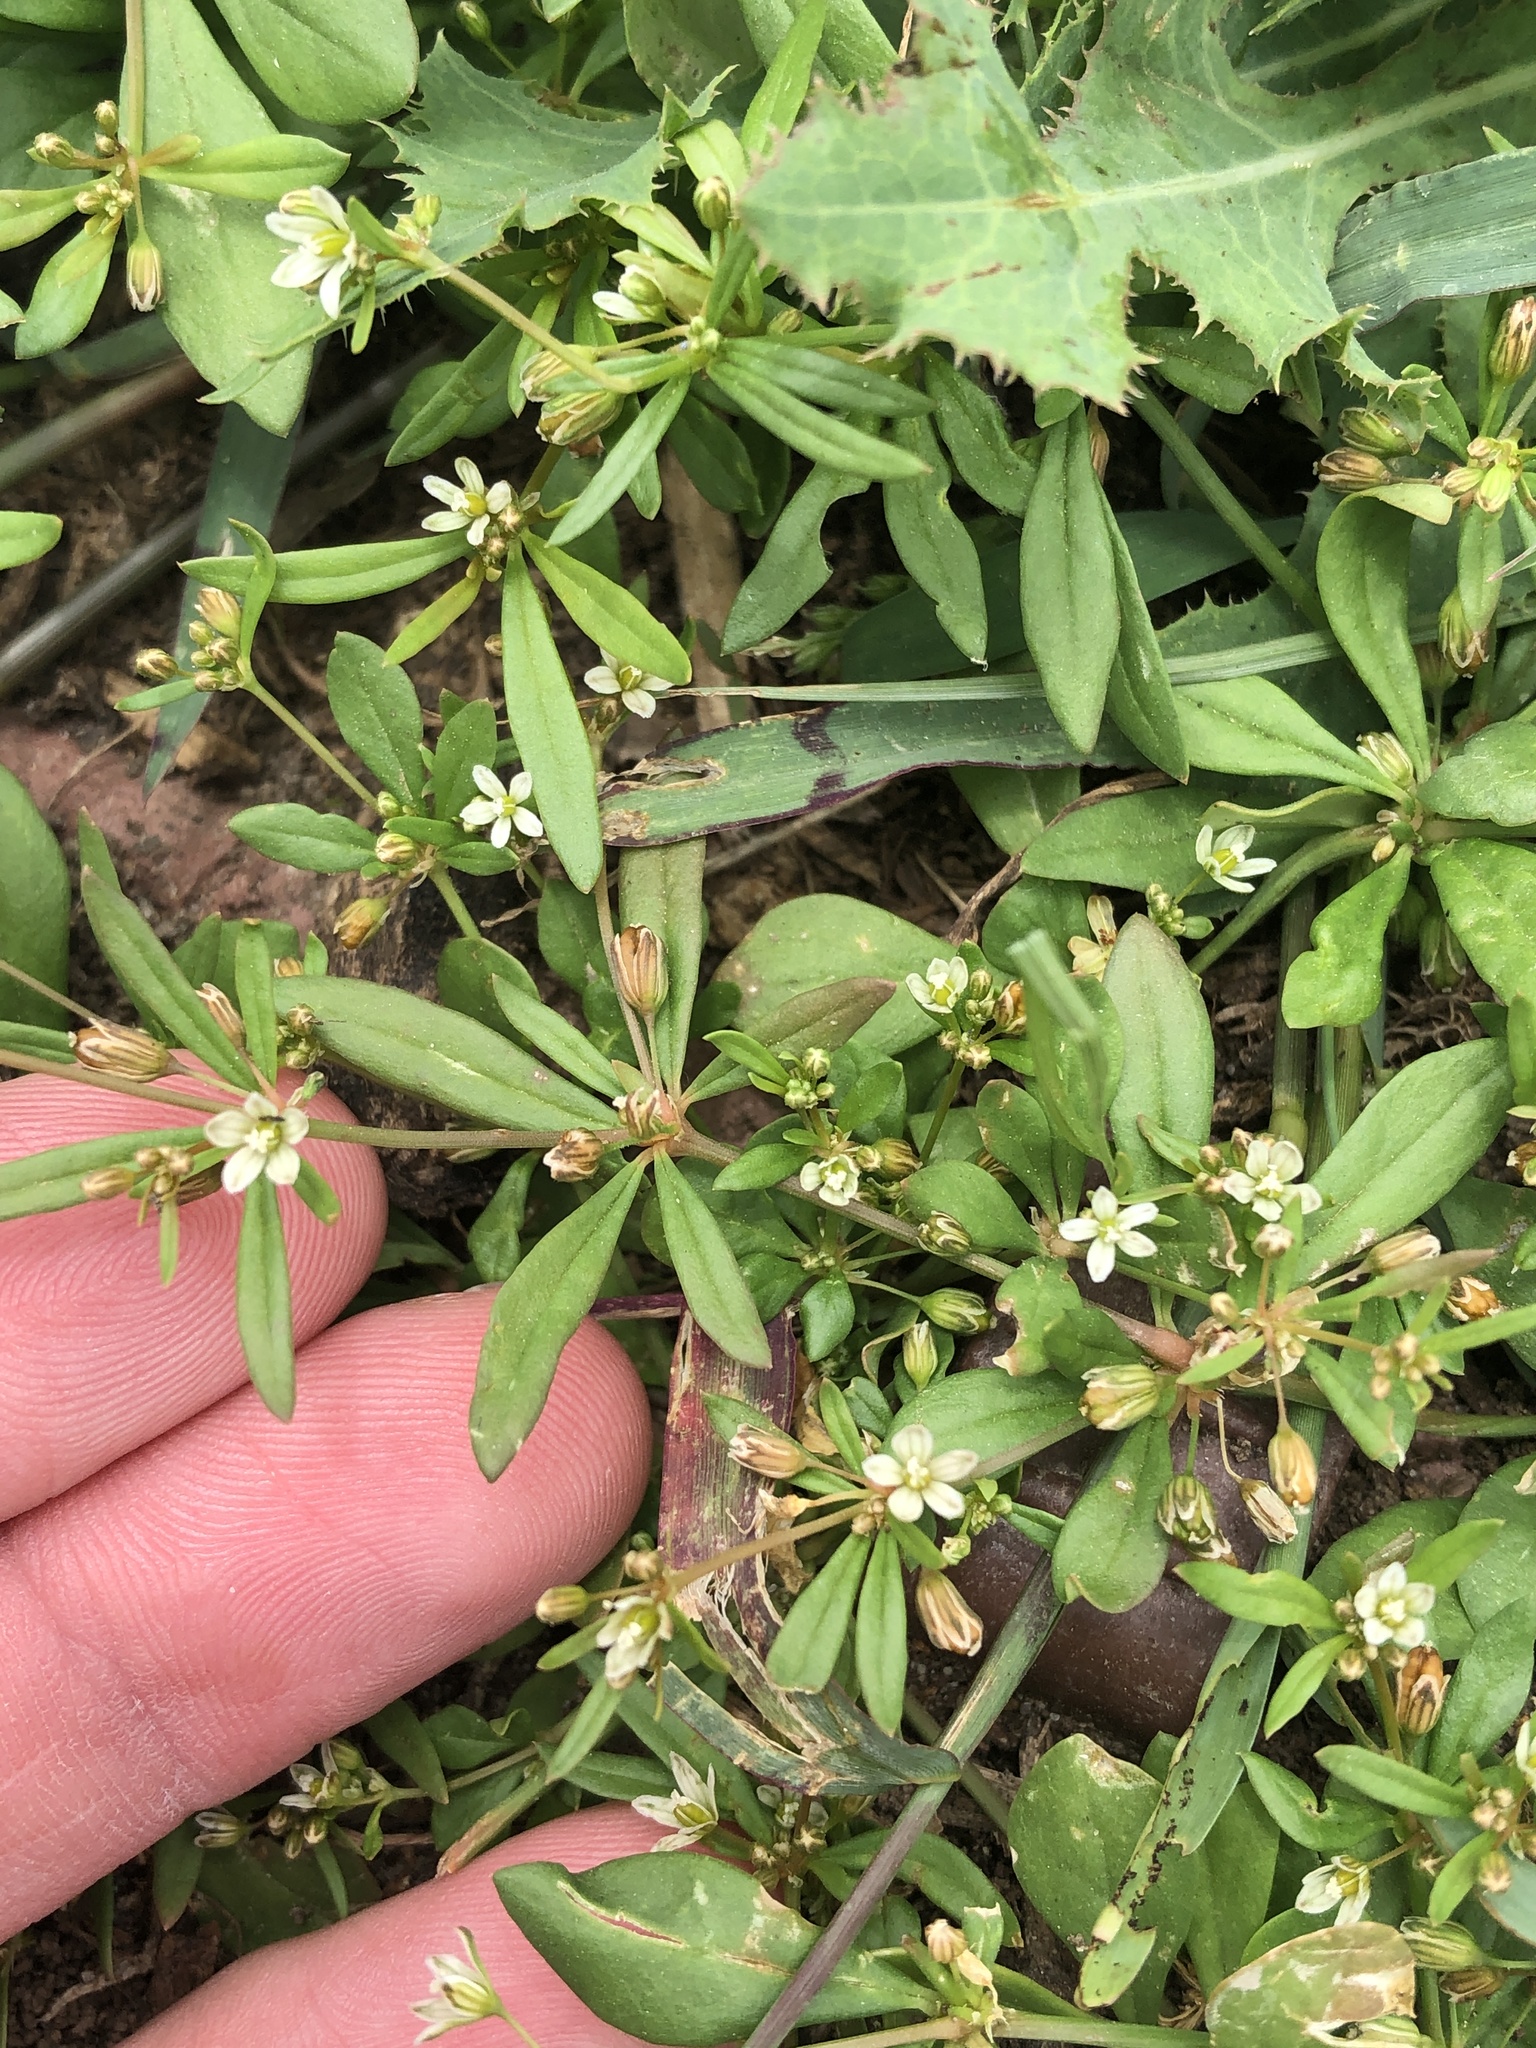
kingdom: Plantae
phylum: Tracheophyta
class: Magnoliopsida
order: Caryophyllales
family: Molluginaceae
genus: Mollugo
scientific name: Mollugo verticillata
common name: Green carpetweed
